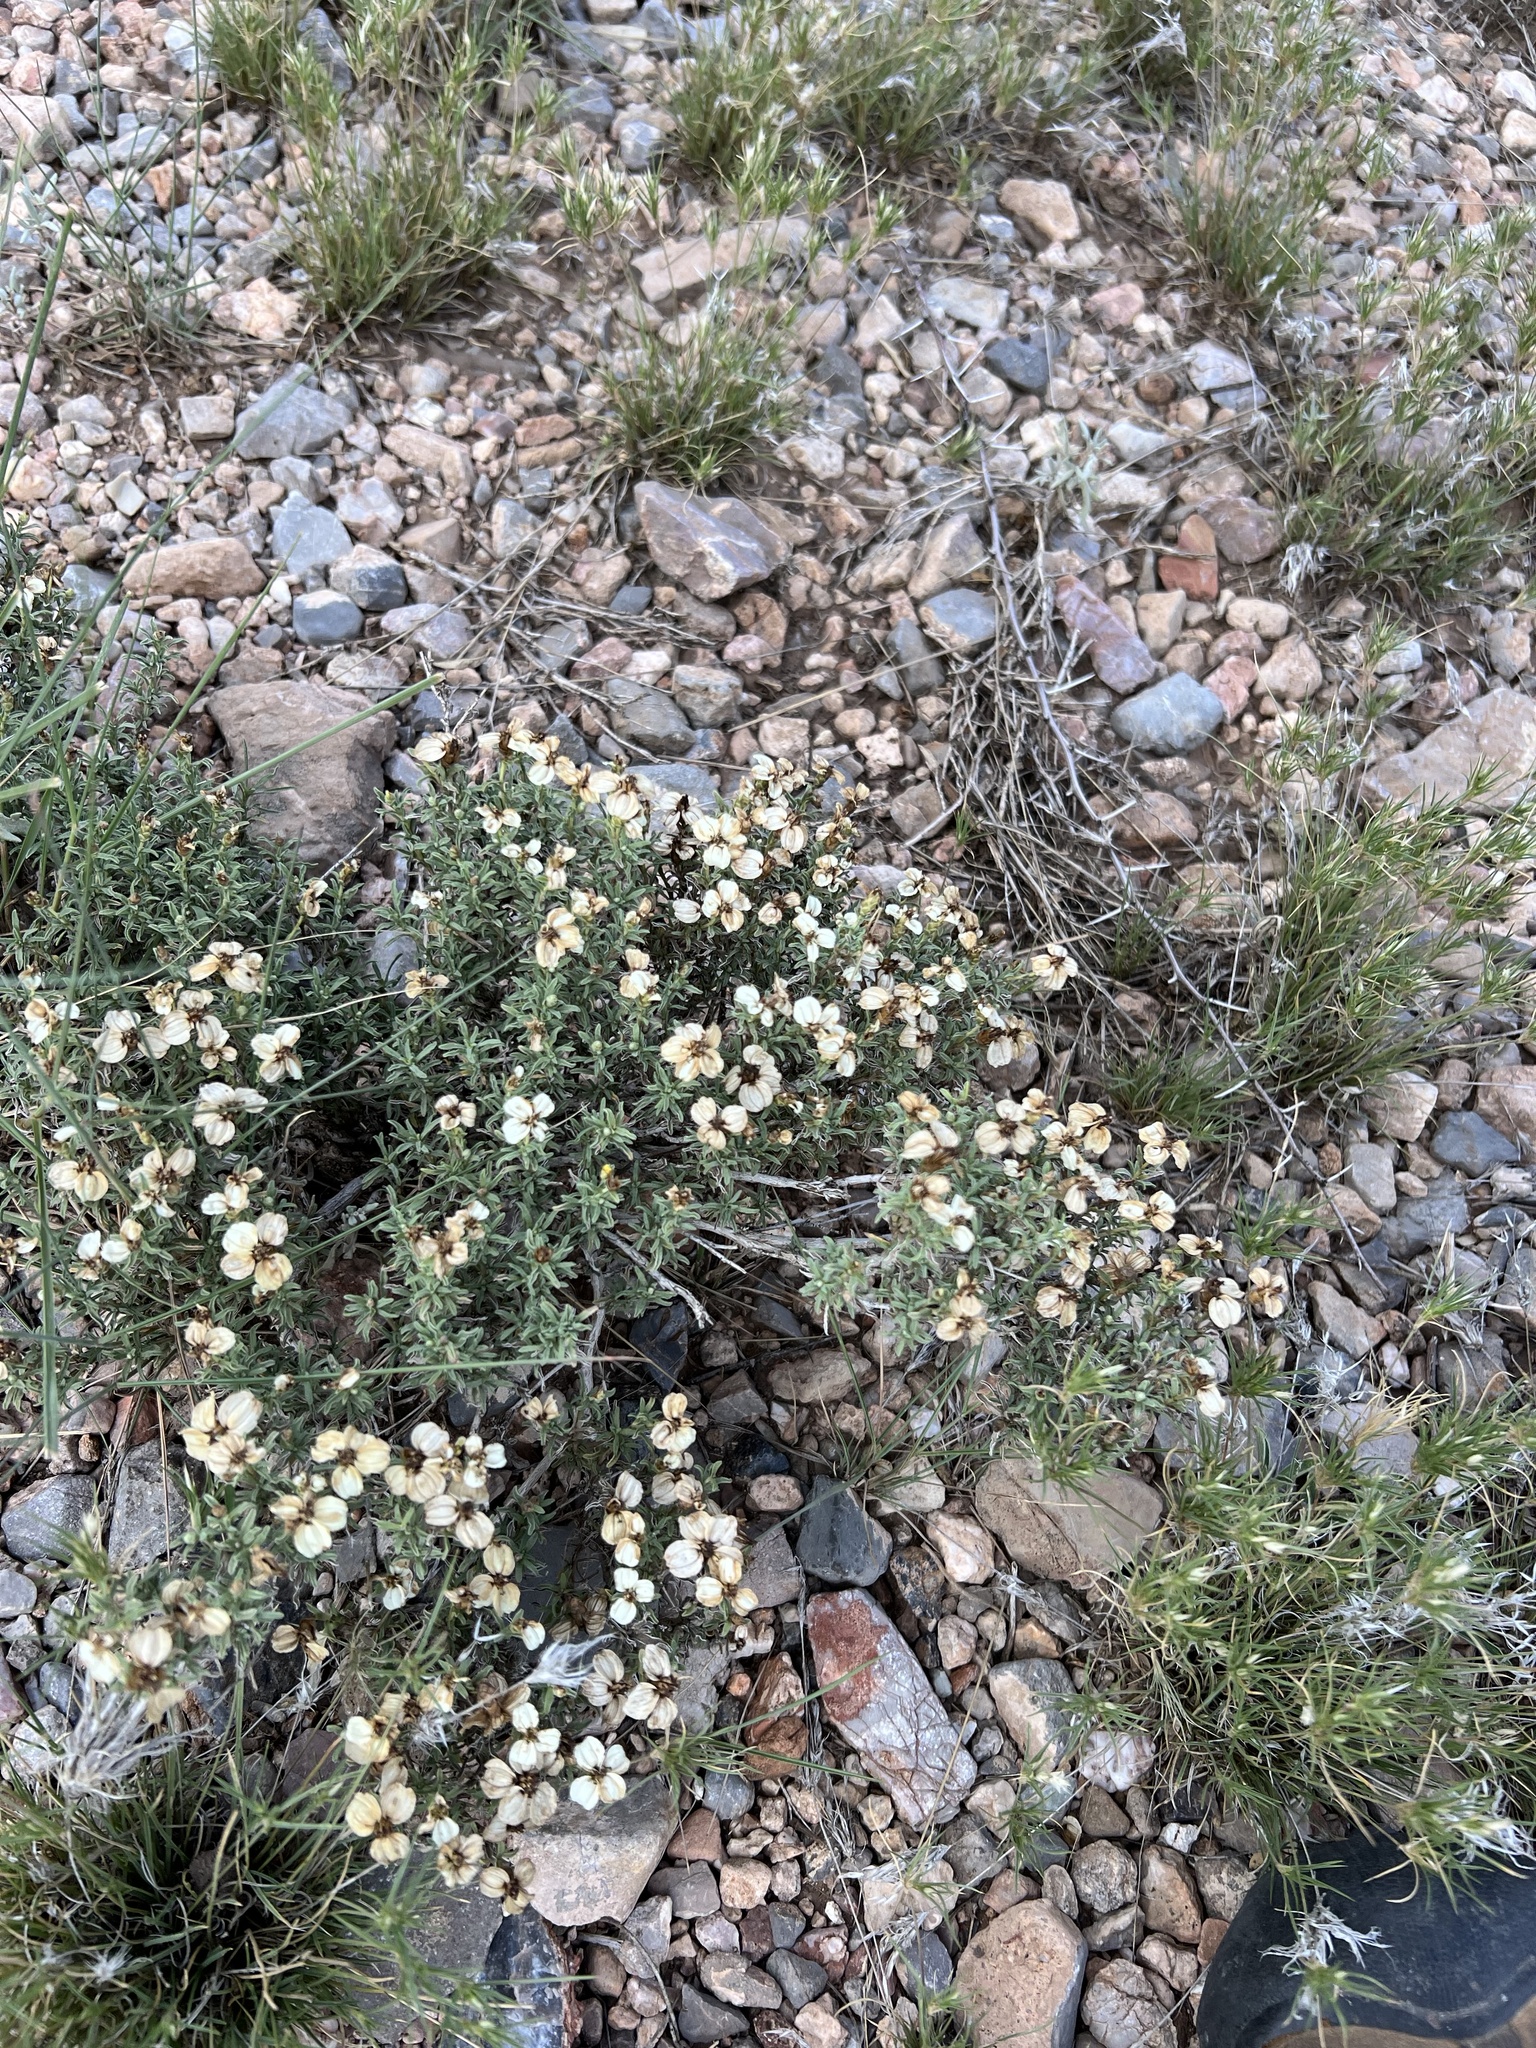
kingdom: Plantae
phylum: Tracheophyta
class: Magnoliopsida
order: Asterales
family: Asteraceae
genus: Zinnia
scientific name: Zinnia acerosa
